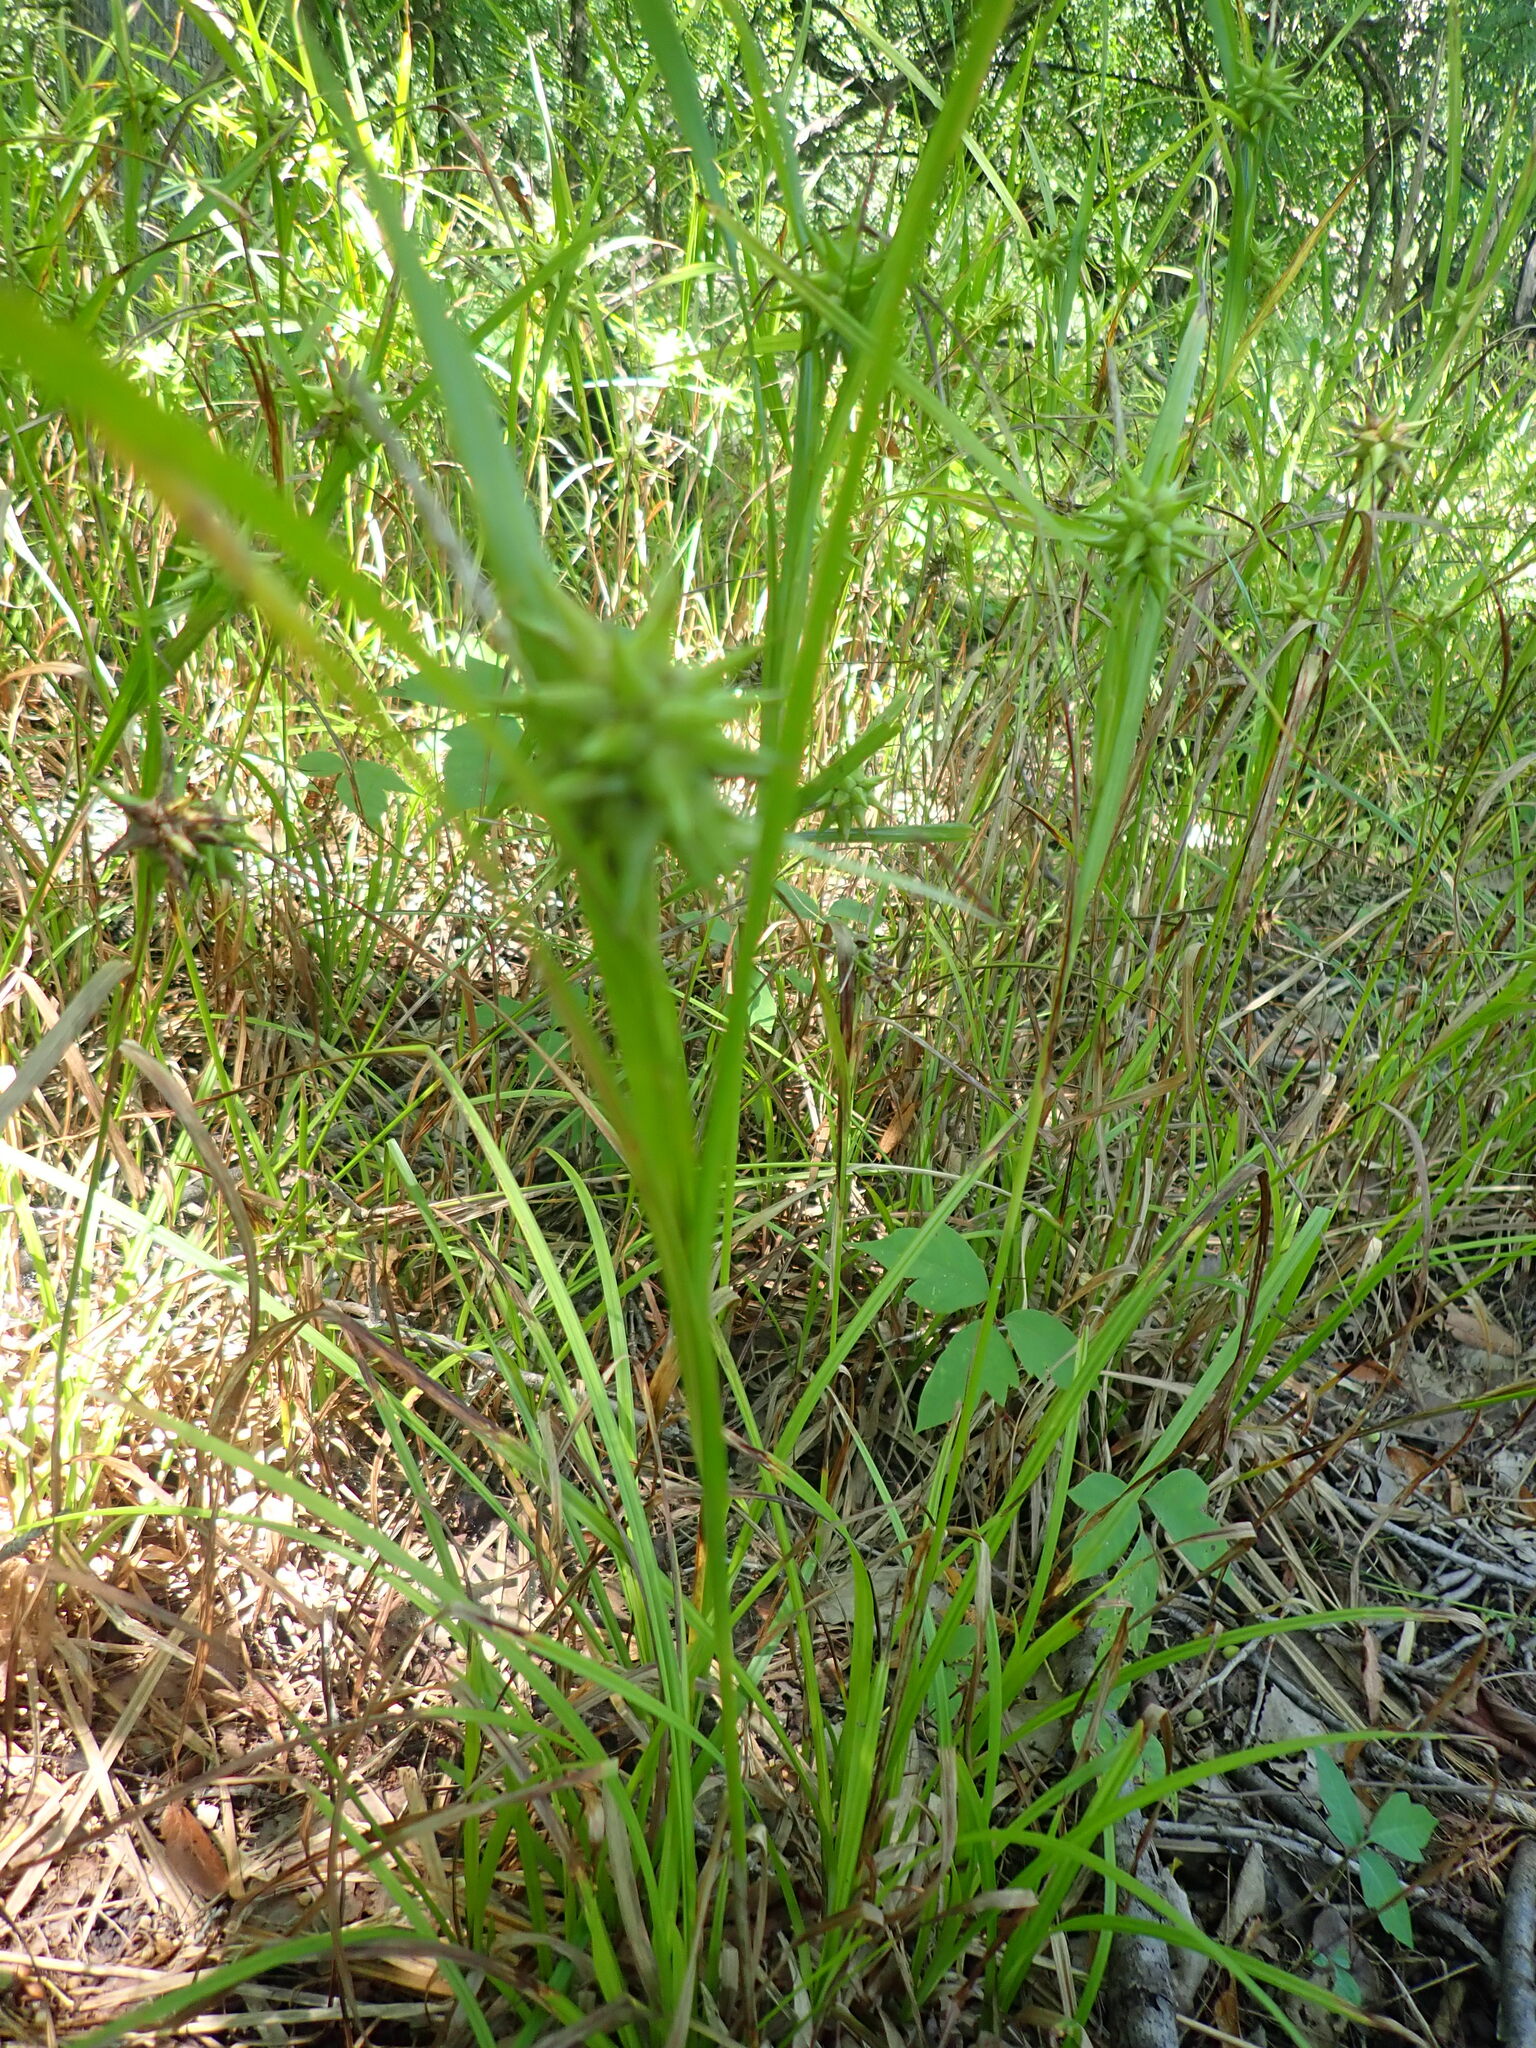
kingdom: Plantae
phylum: Tracheophyta
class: Liliopsida
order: Poales
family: Cyperaceae
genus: Carex
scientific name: Carex grayi
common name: Asa gray's sedge
